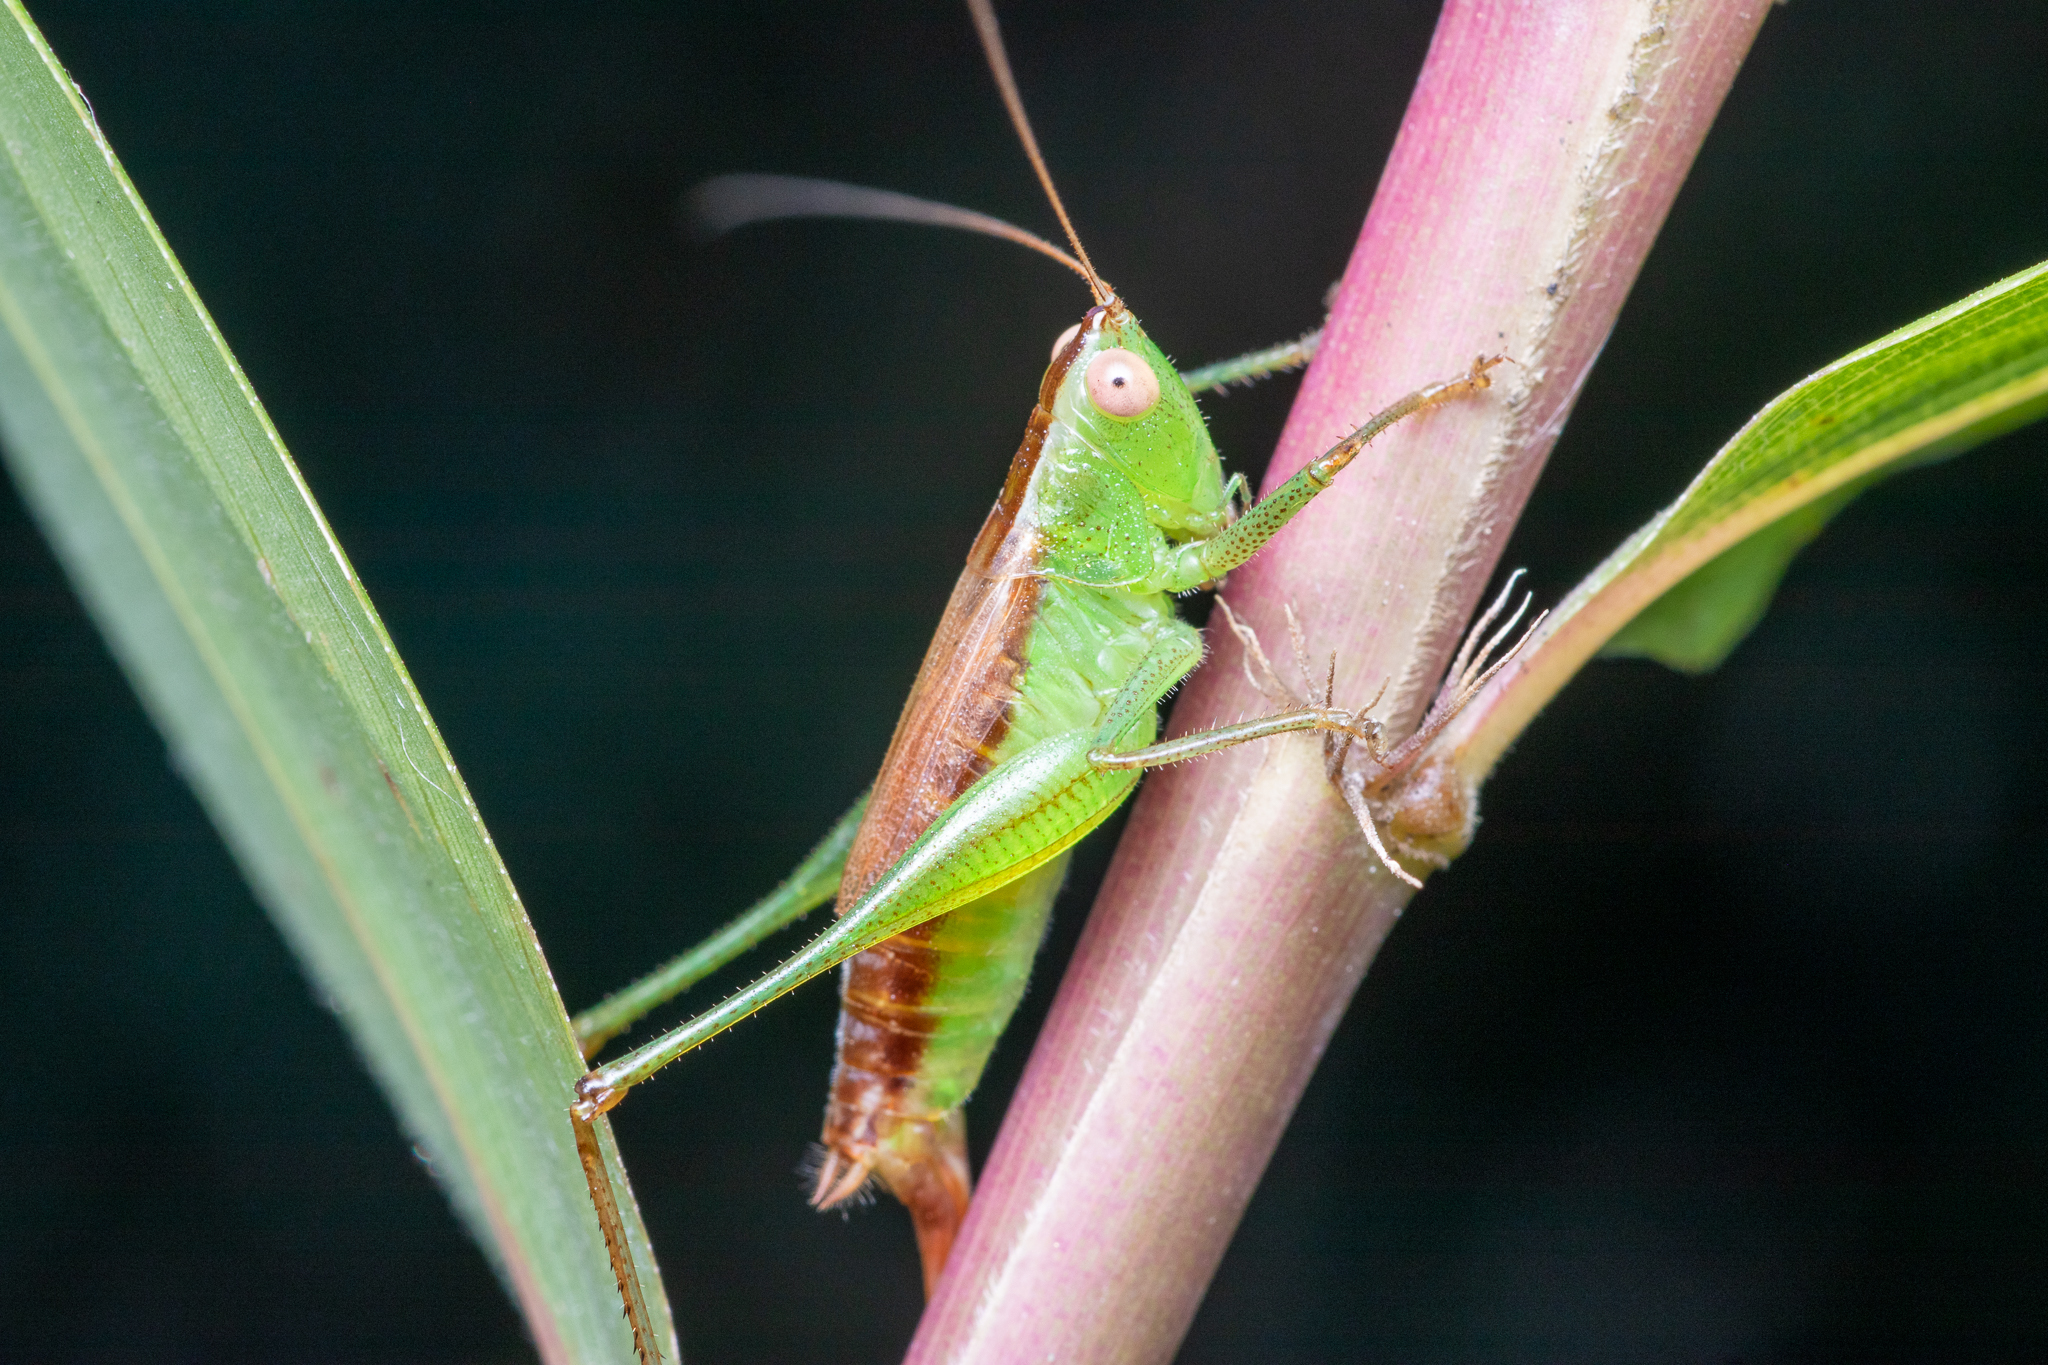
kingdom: Animalia
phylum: Arthropoda
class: Insecta
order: Orthoptera
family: Tettigoniidae
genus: Conocephalus
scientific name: Conocephalus brevipennis
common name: Short-winged meadow katydid
